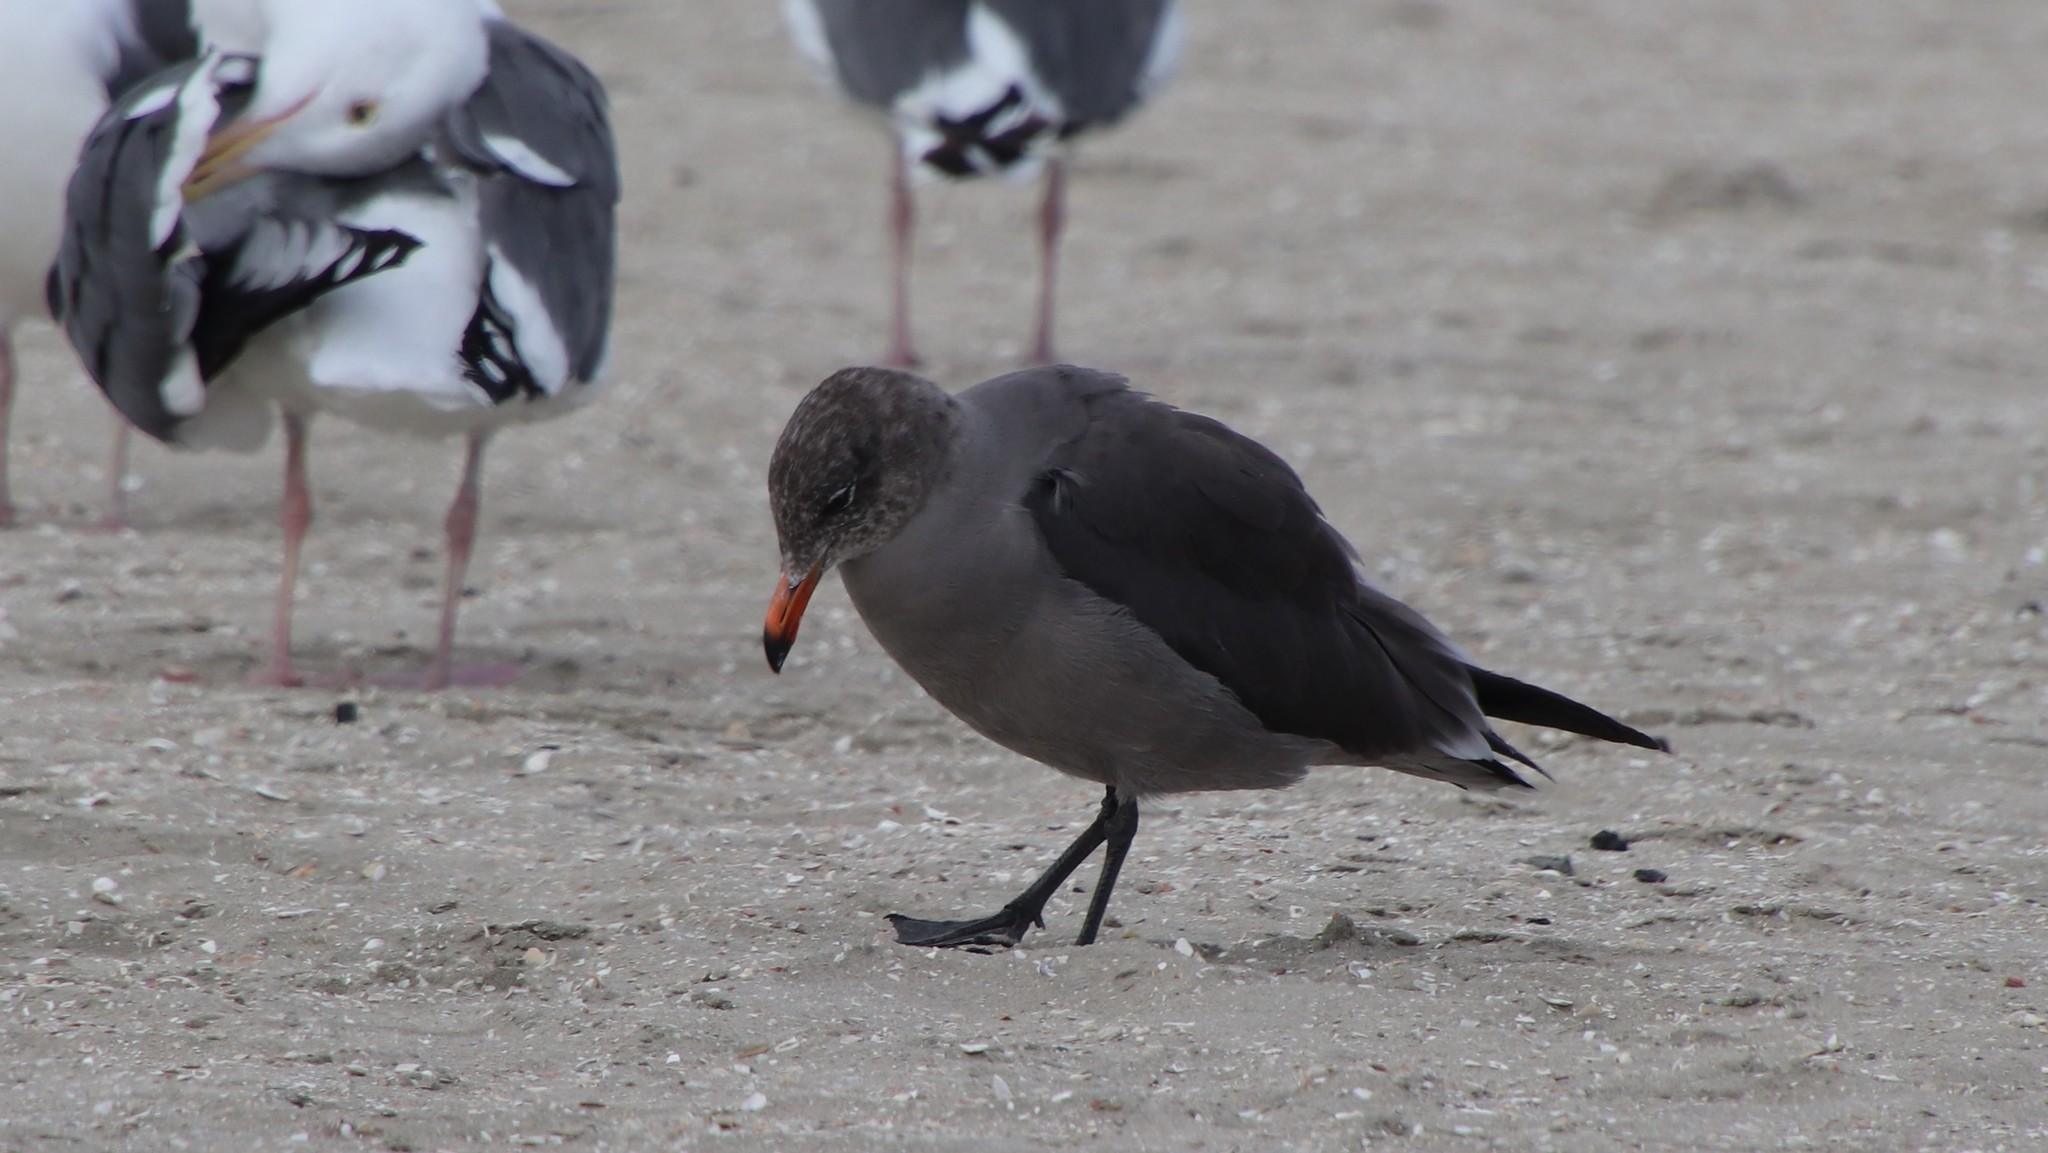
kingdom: Animalia
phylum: Chordata
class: Aves
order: Charadriiformes
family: Laridae
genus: Larus
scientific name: Larus heermanni
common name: Heermann's gull
